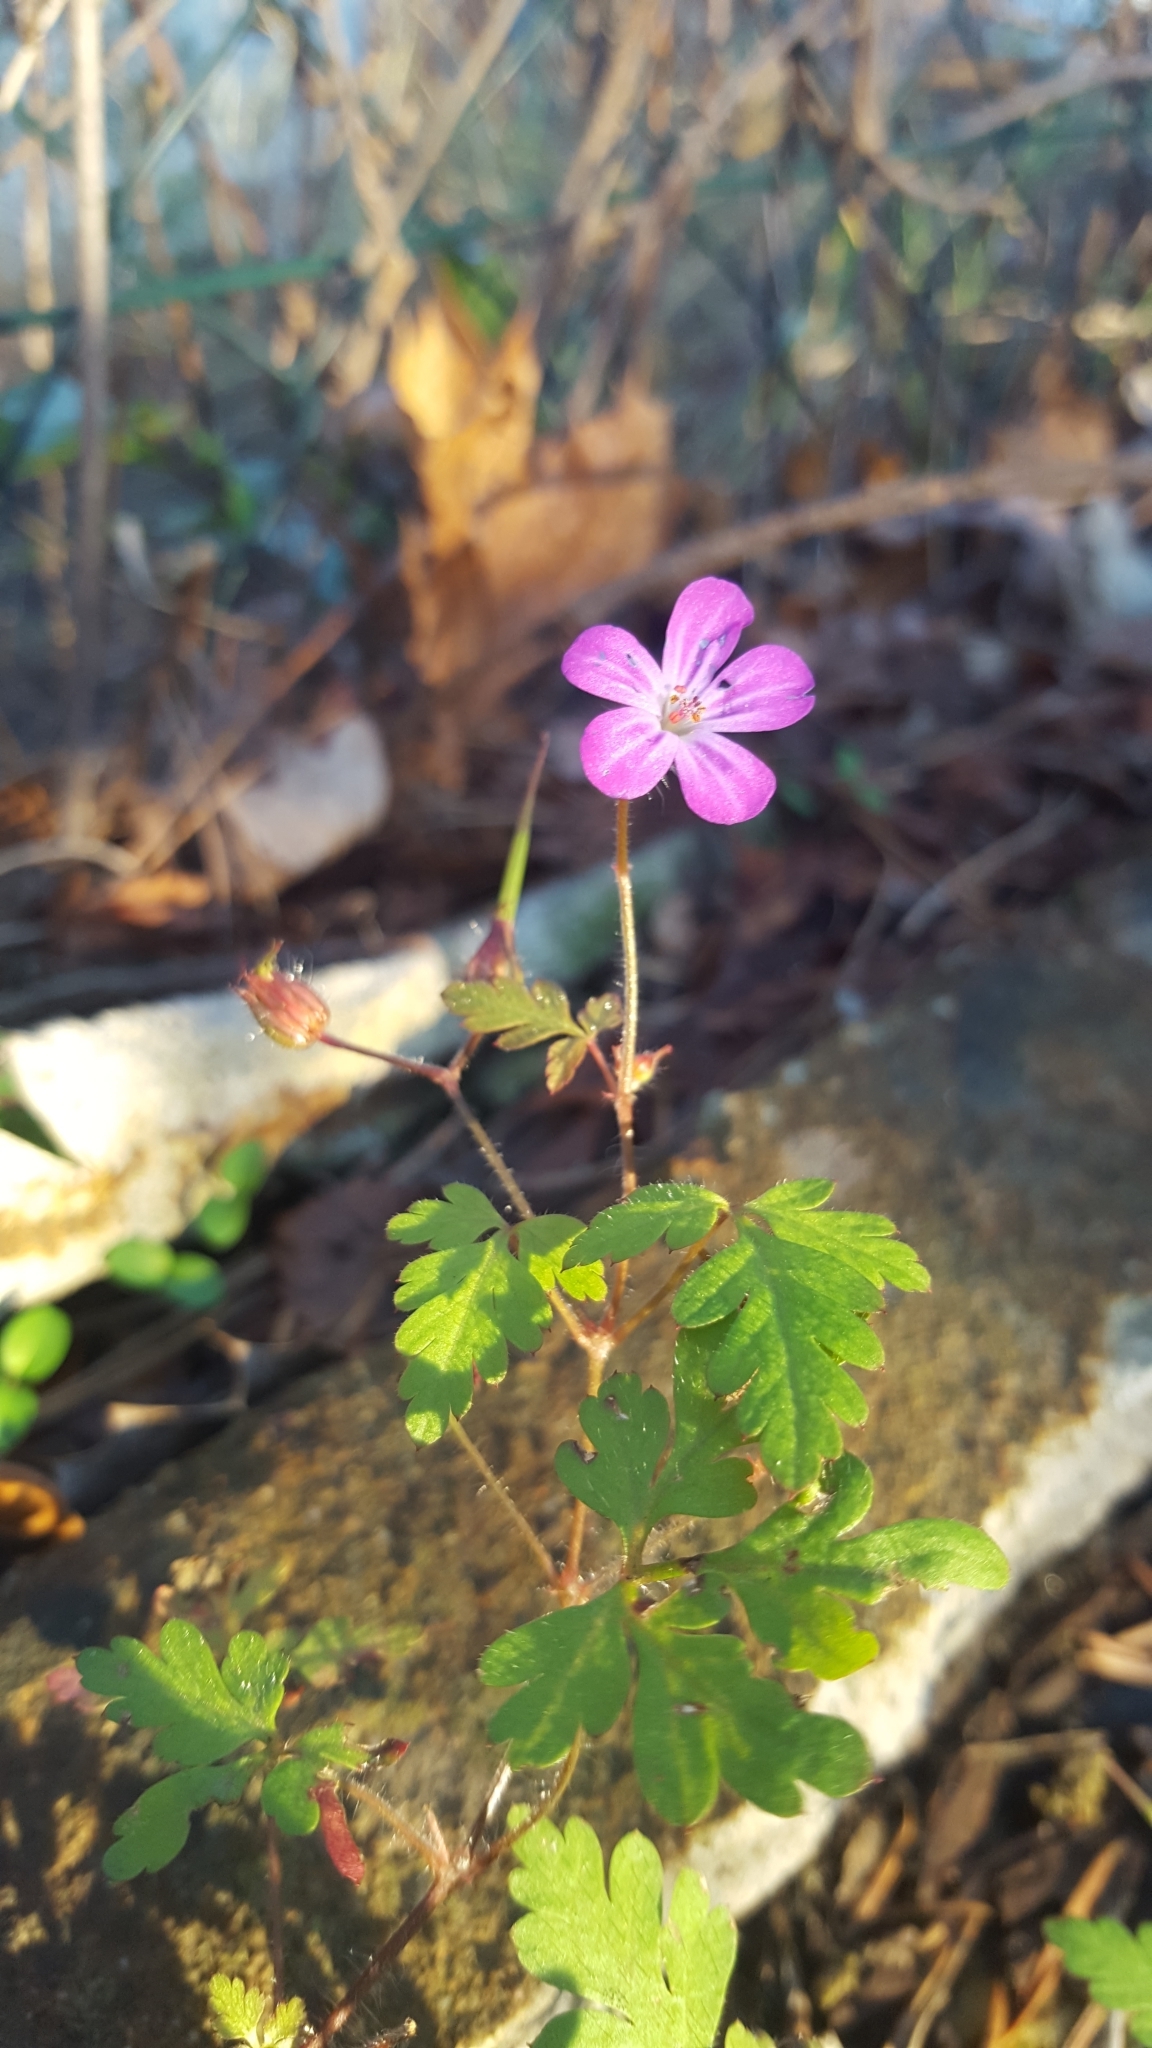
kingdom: Plantae
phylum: Tracheophyta
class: Magnoliopsida
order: Geraniales
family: Geraniaceae
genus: Geranium
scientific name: Geranium robertianum
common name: Herb-robert
